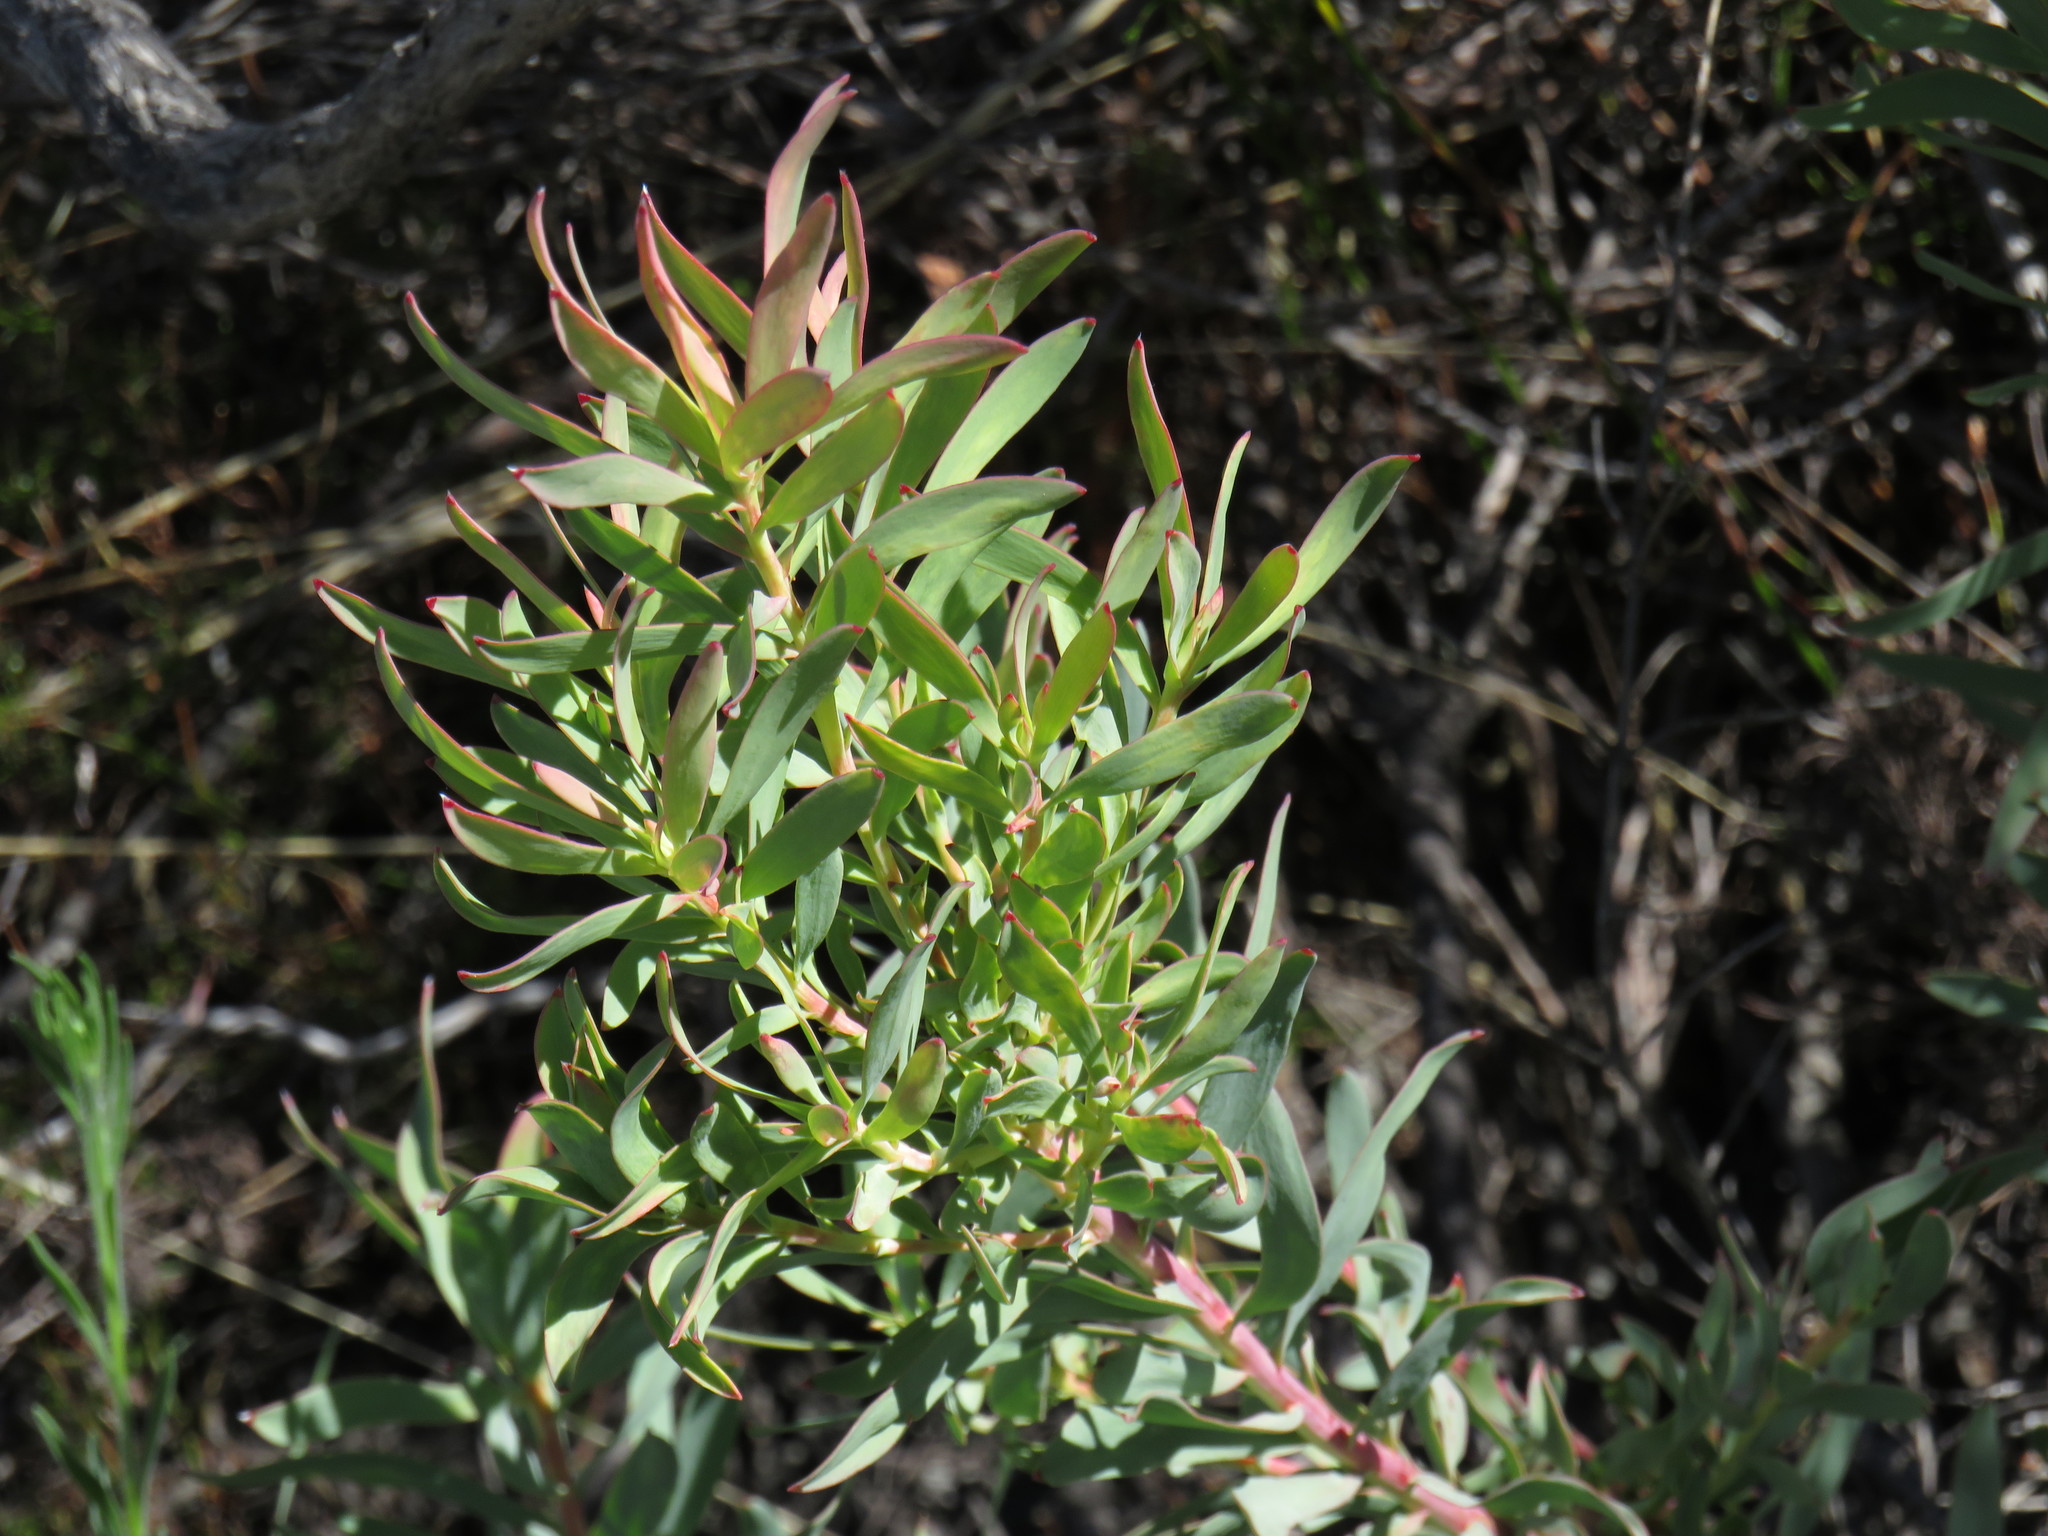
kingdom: Plantae
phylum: Tracheophyta
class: Magnoliopsida
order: Proteales
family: Proteaceae
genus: Leucadendron
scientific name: Leucadendron glaberrimum
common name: Common oily conebush
